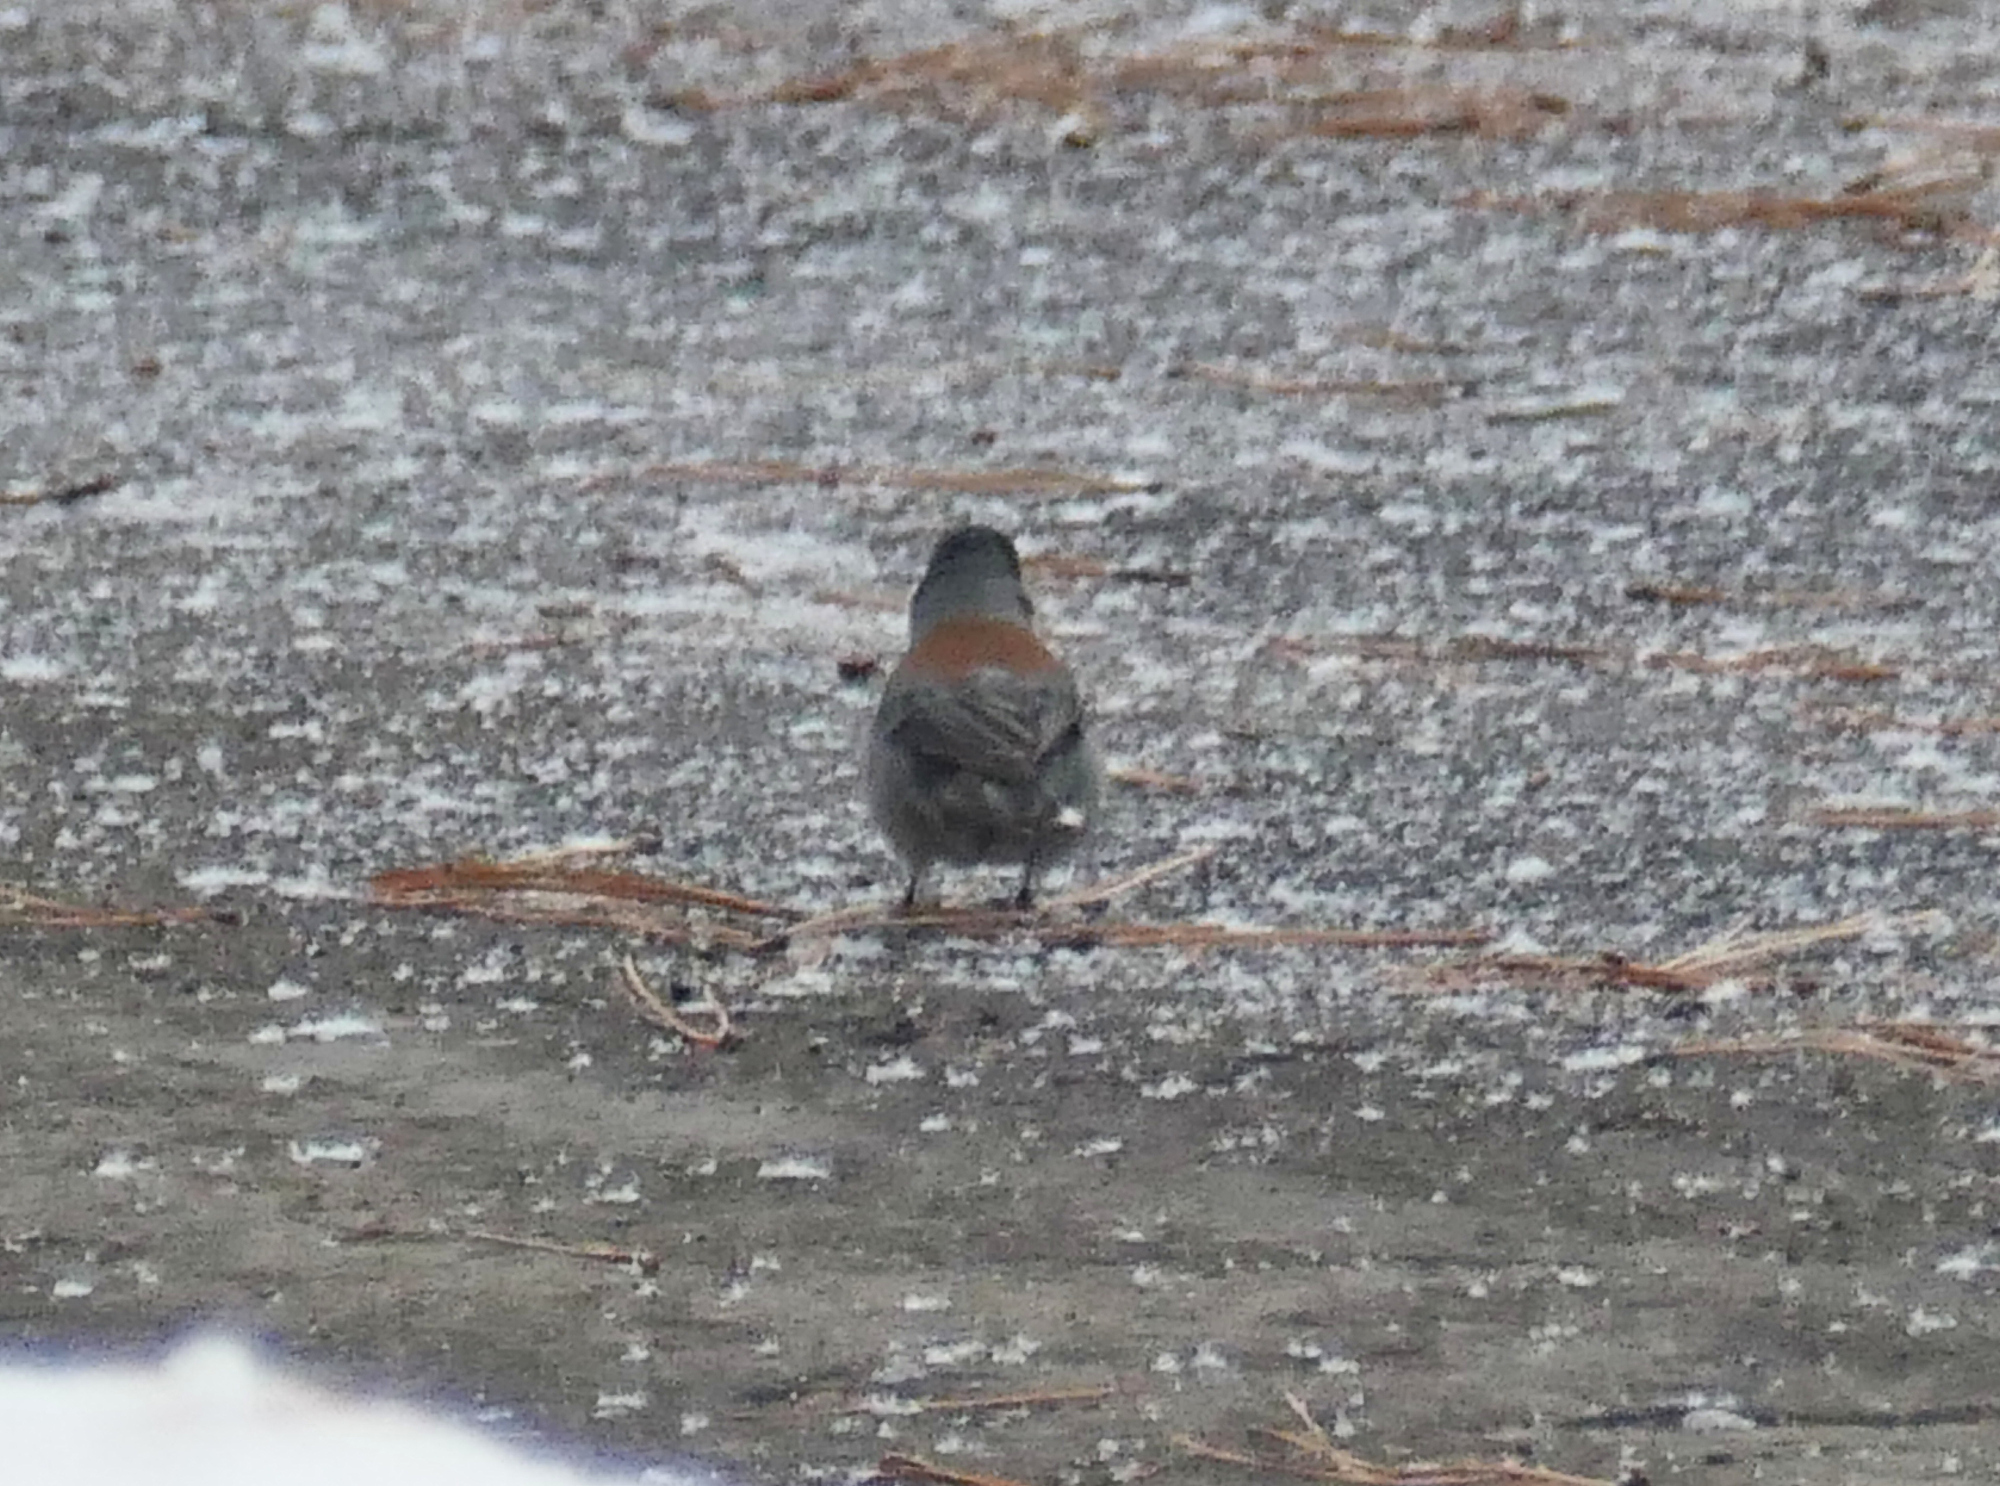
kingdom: Animalia
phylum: Chordata
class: Aves
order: Passeriformes
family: Passerellidae
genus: Junco
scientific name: Junco hyemalis
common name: Dark-eyed junco
